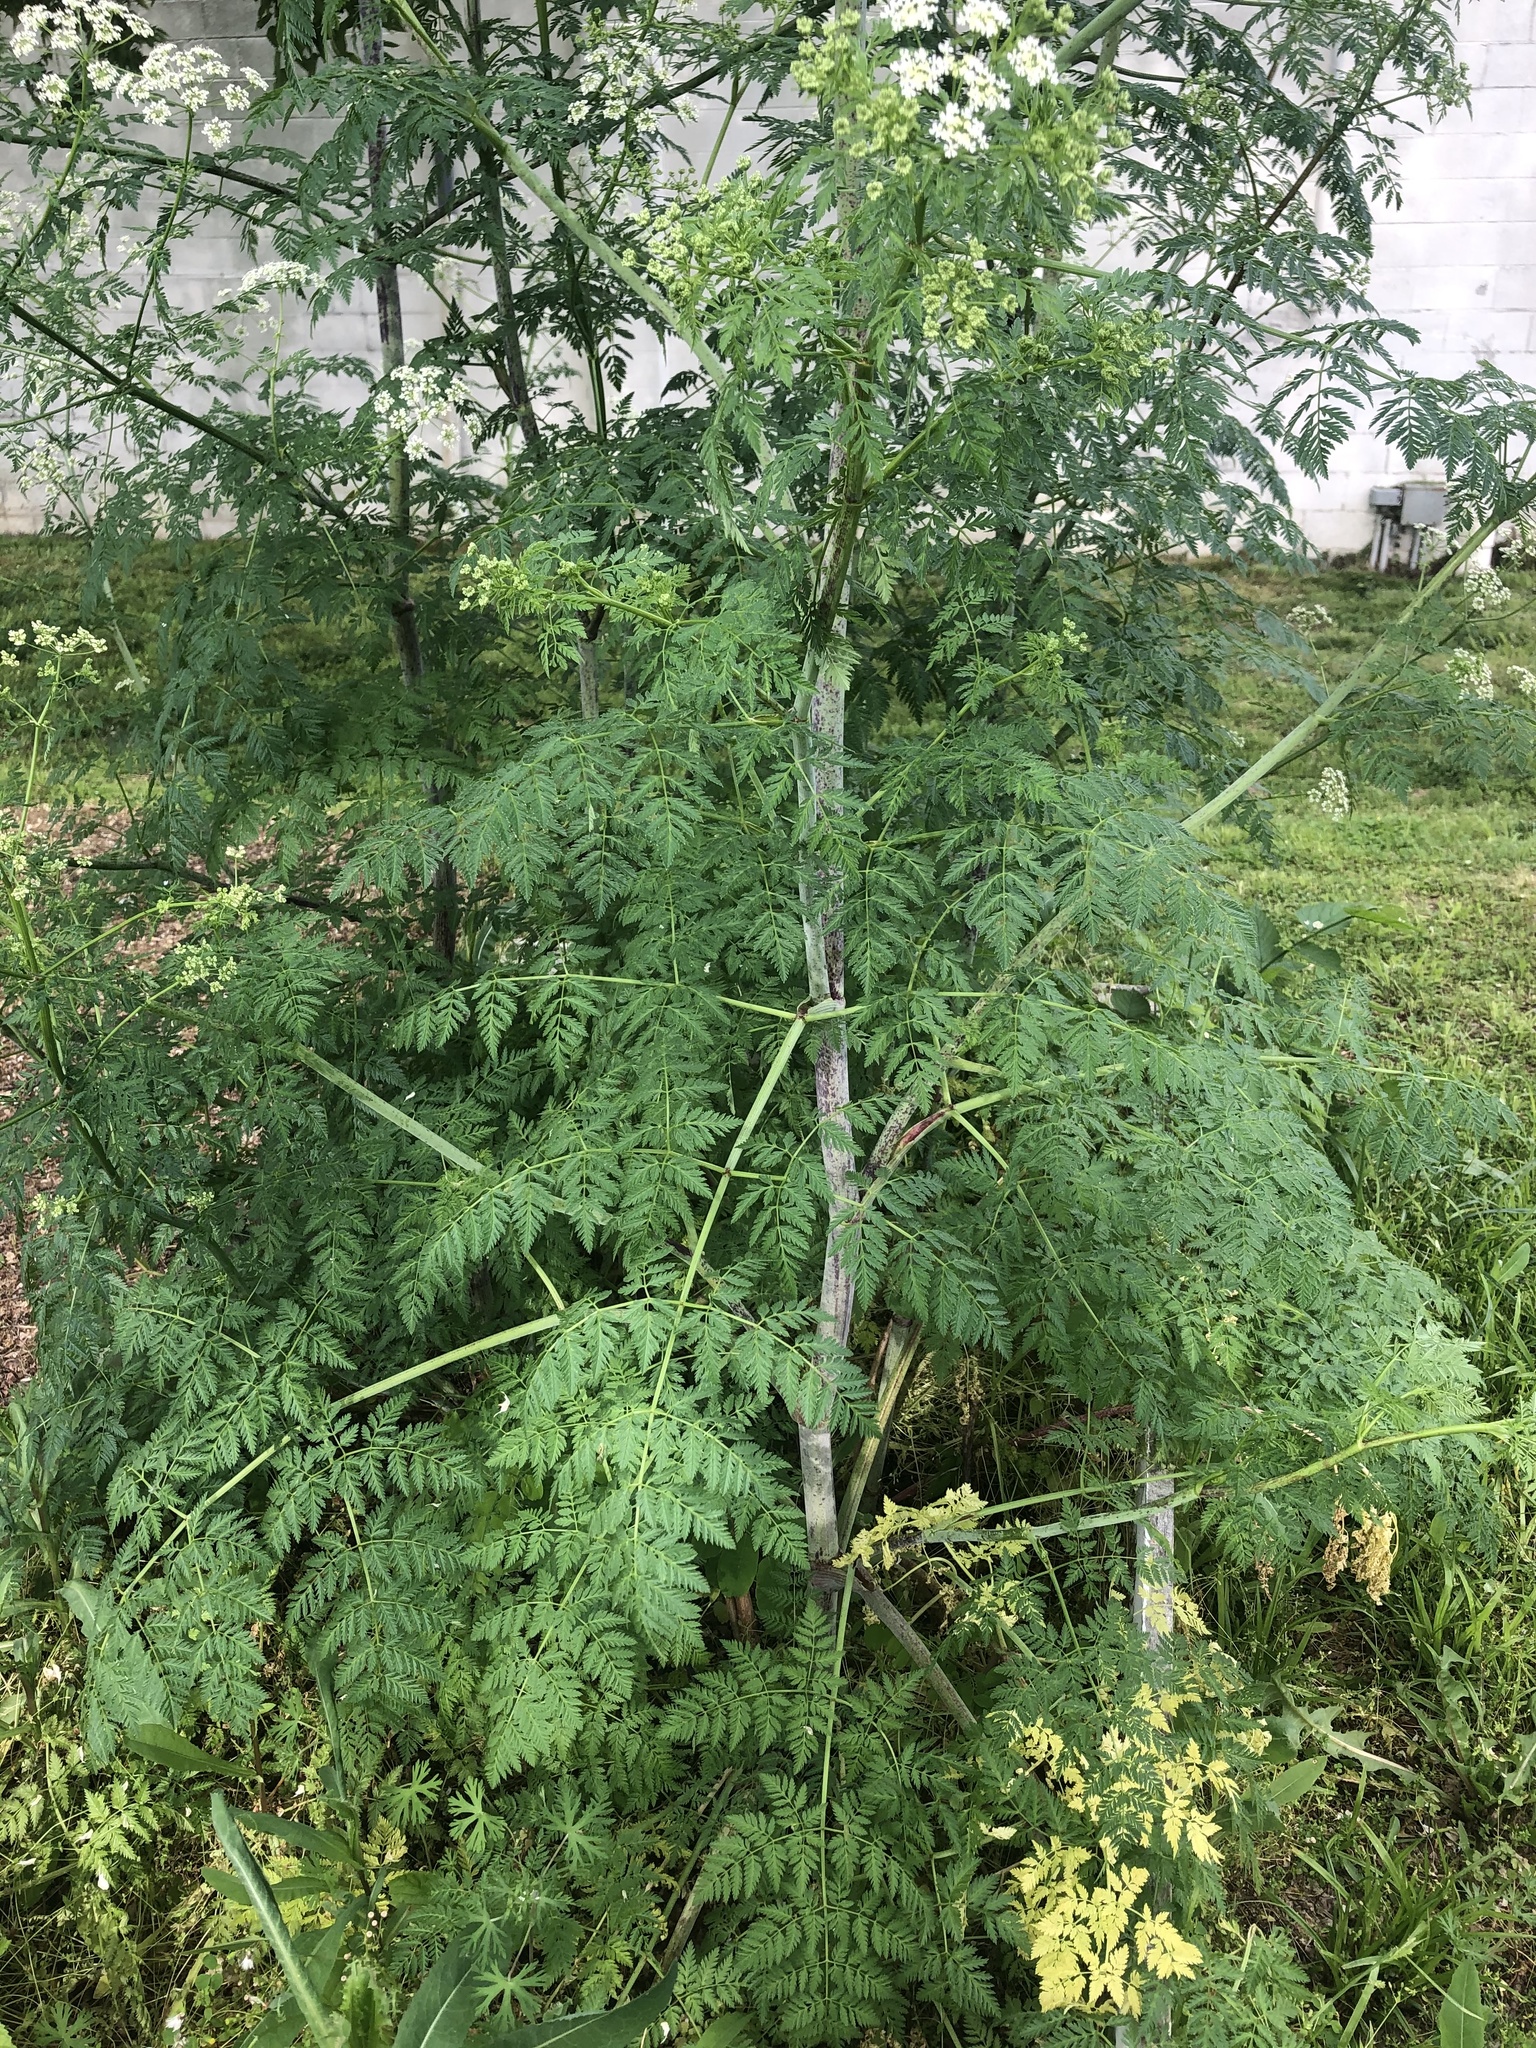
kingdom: Plantae
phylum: Tracheophyta
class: Magnoliopsida
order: Apiales
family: Apiaceae
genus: Conium
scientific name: Conium maculatum
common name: Hemlock
